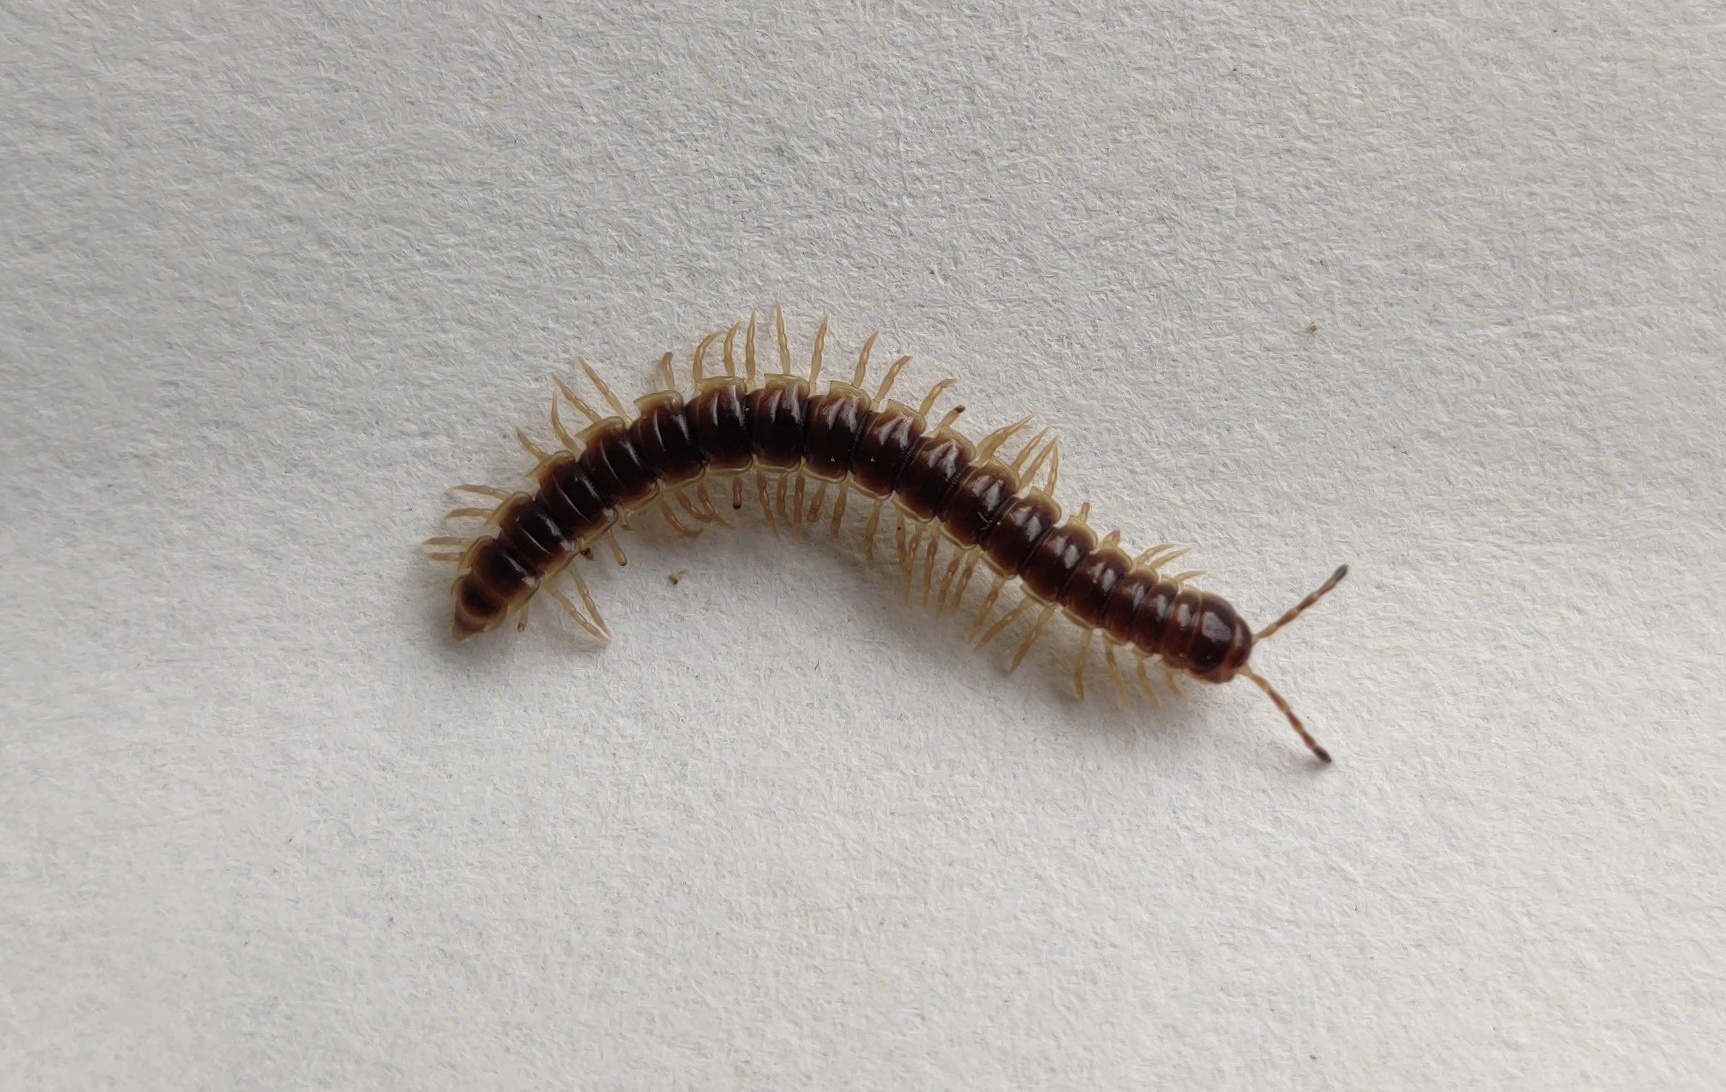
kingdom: Animalia
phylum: Arthropoda
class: Diplopoda
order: Polydesmida
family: Paradoxosomatidae
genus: Oxidus
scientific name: Oxidus gracilis
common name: Greenhouse millipede
